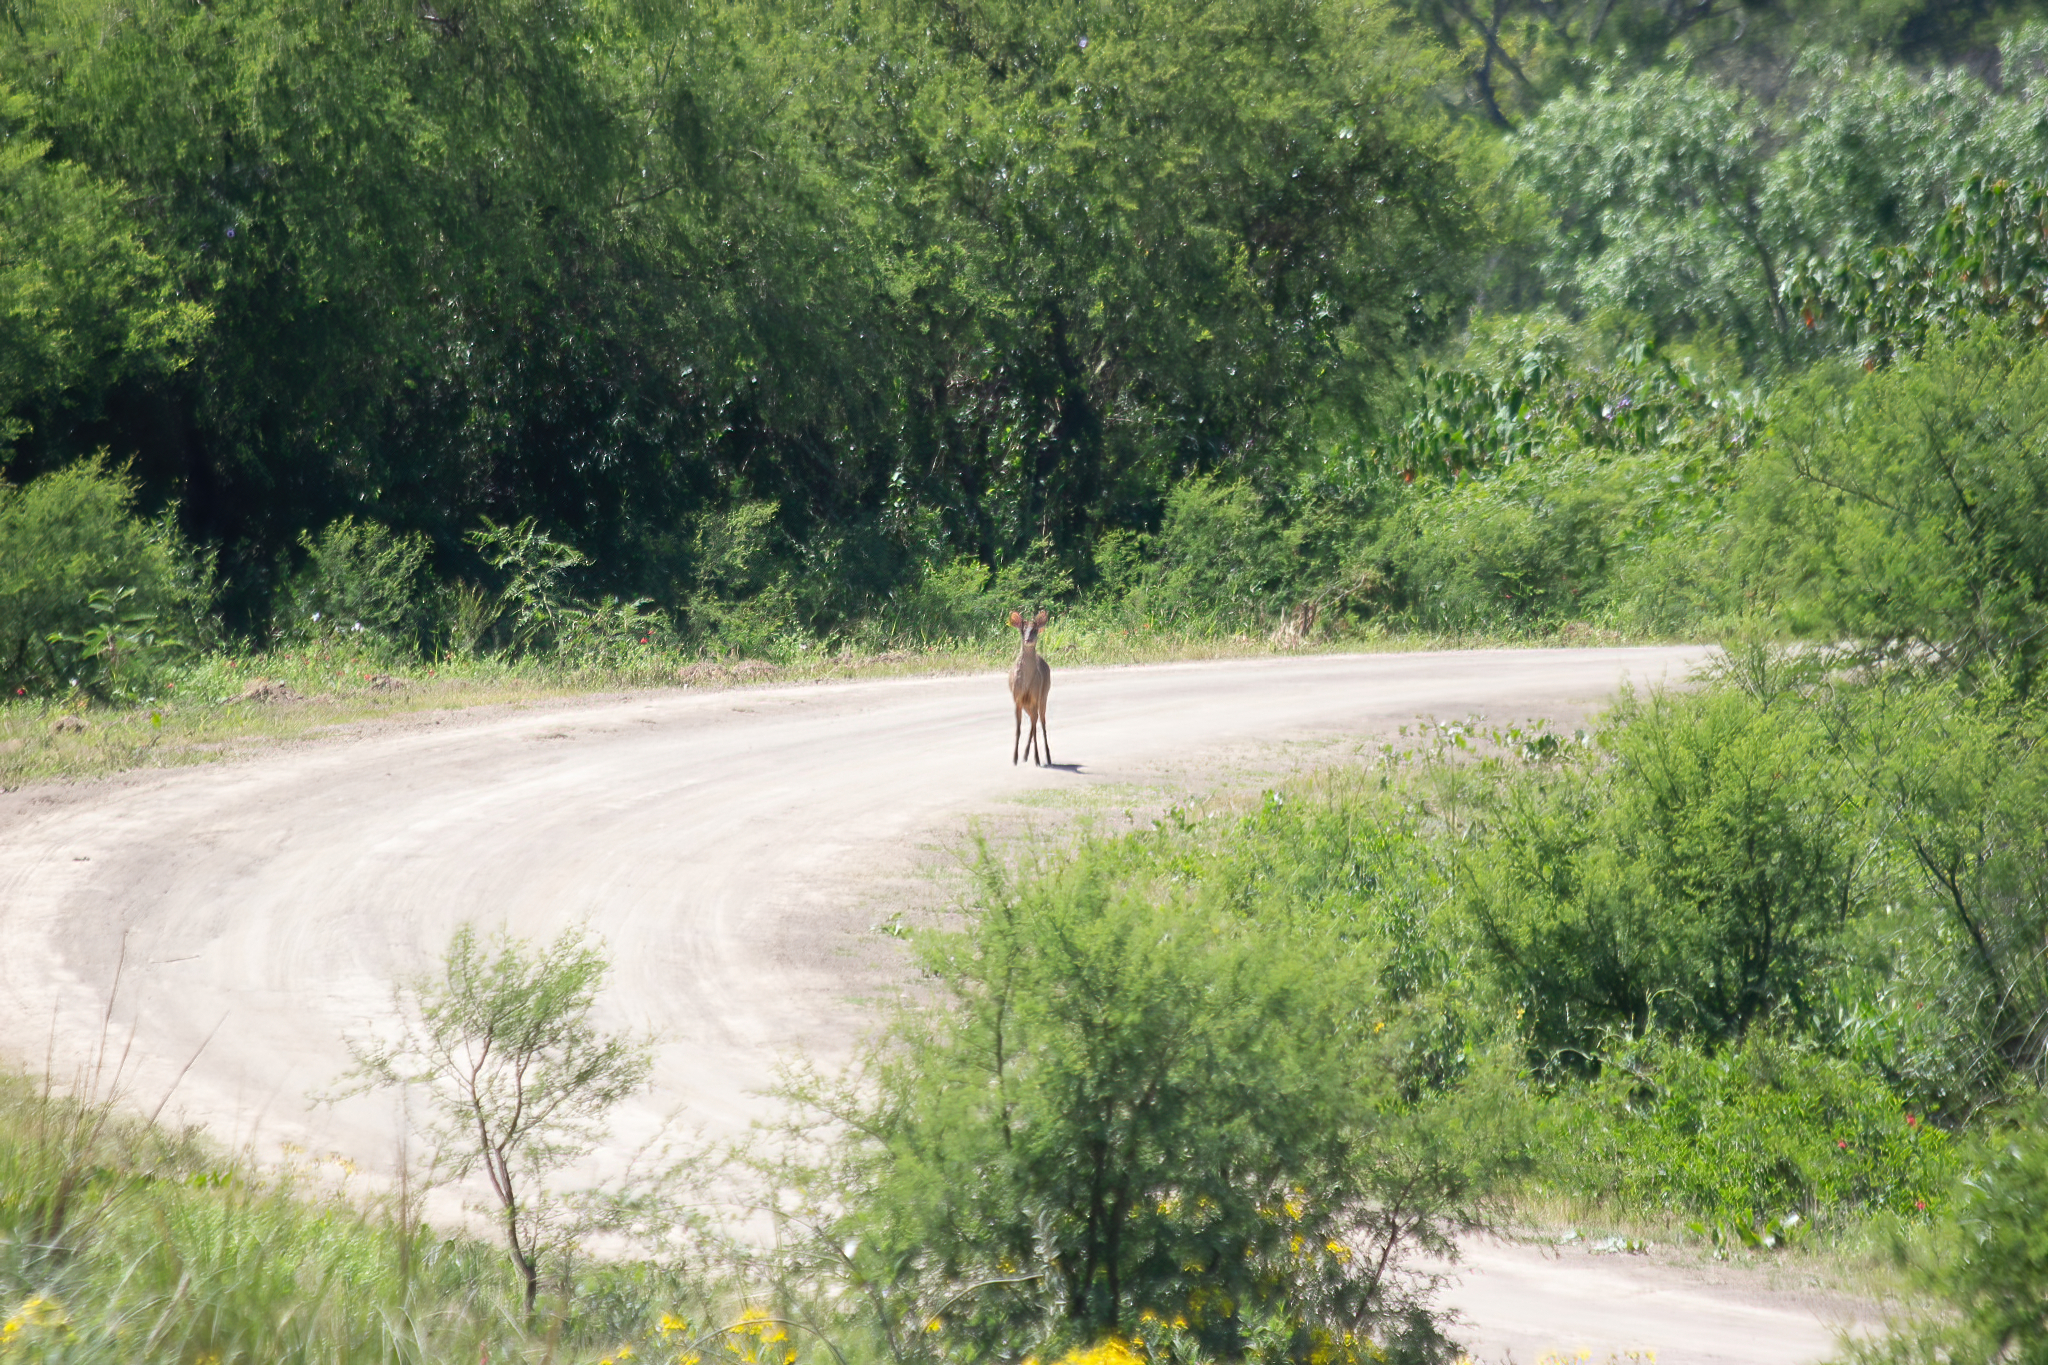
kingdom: Animalia
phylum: Chordata
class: Mammalia
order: Artiodactyla
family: Cervidae
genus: Mazama
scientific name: Mazama gouazoubira
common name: Gray brocket
